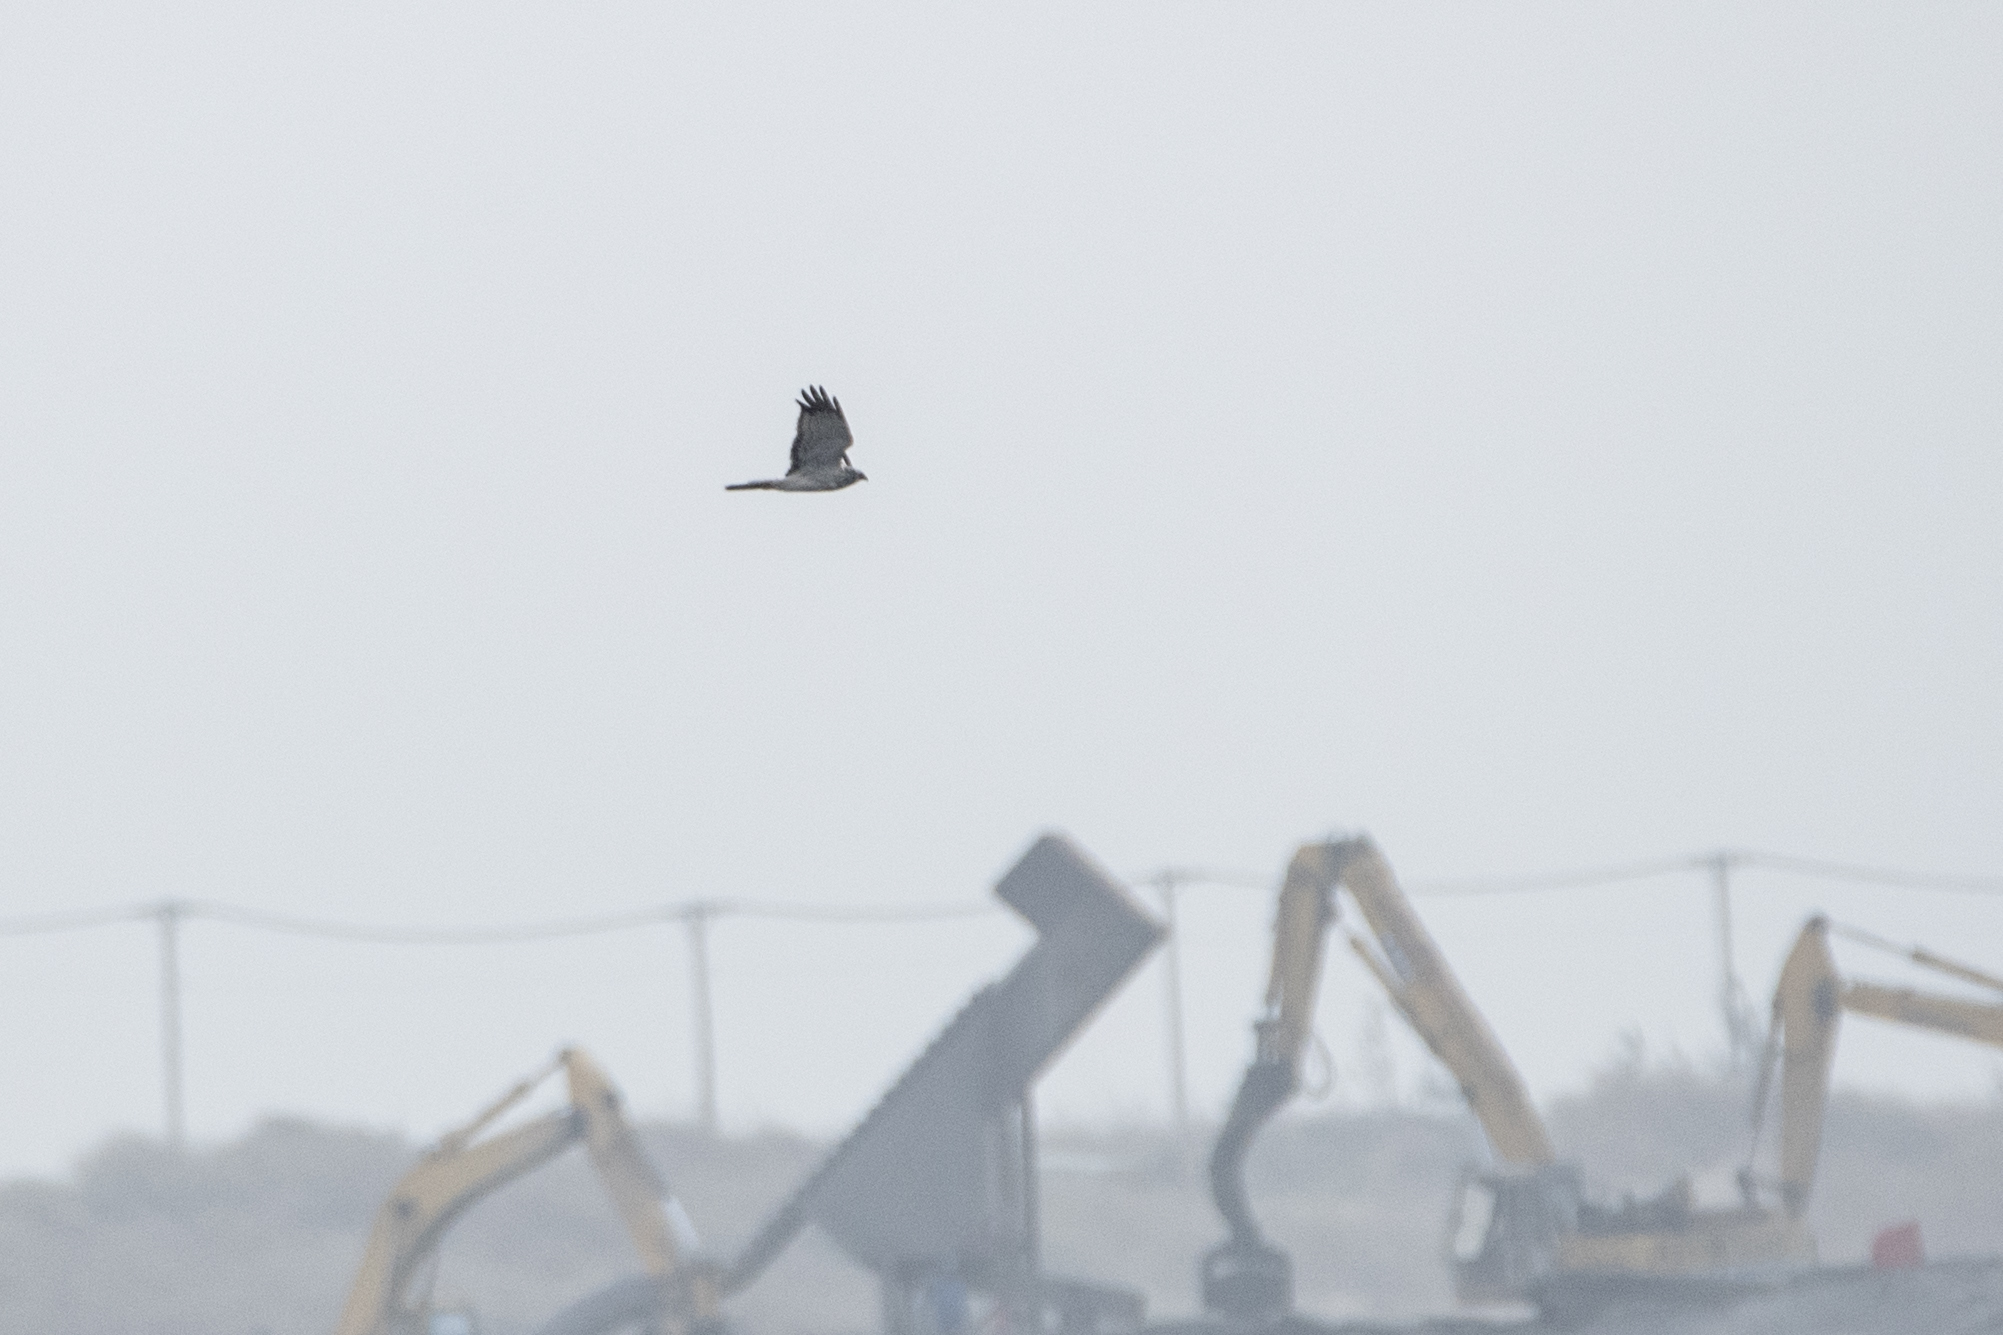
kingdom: Animalia
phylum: Chordata
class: Aves
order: Accipitriformes
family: Accipitridae
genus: Circus
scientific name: Circus spilonotus
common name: Eastern marsh-harrier
